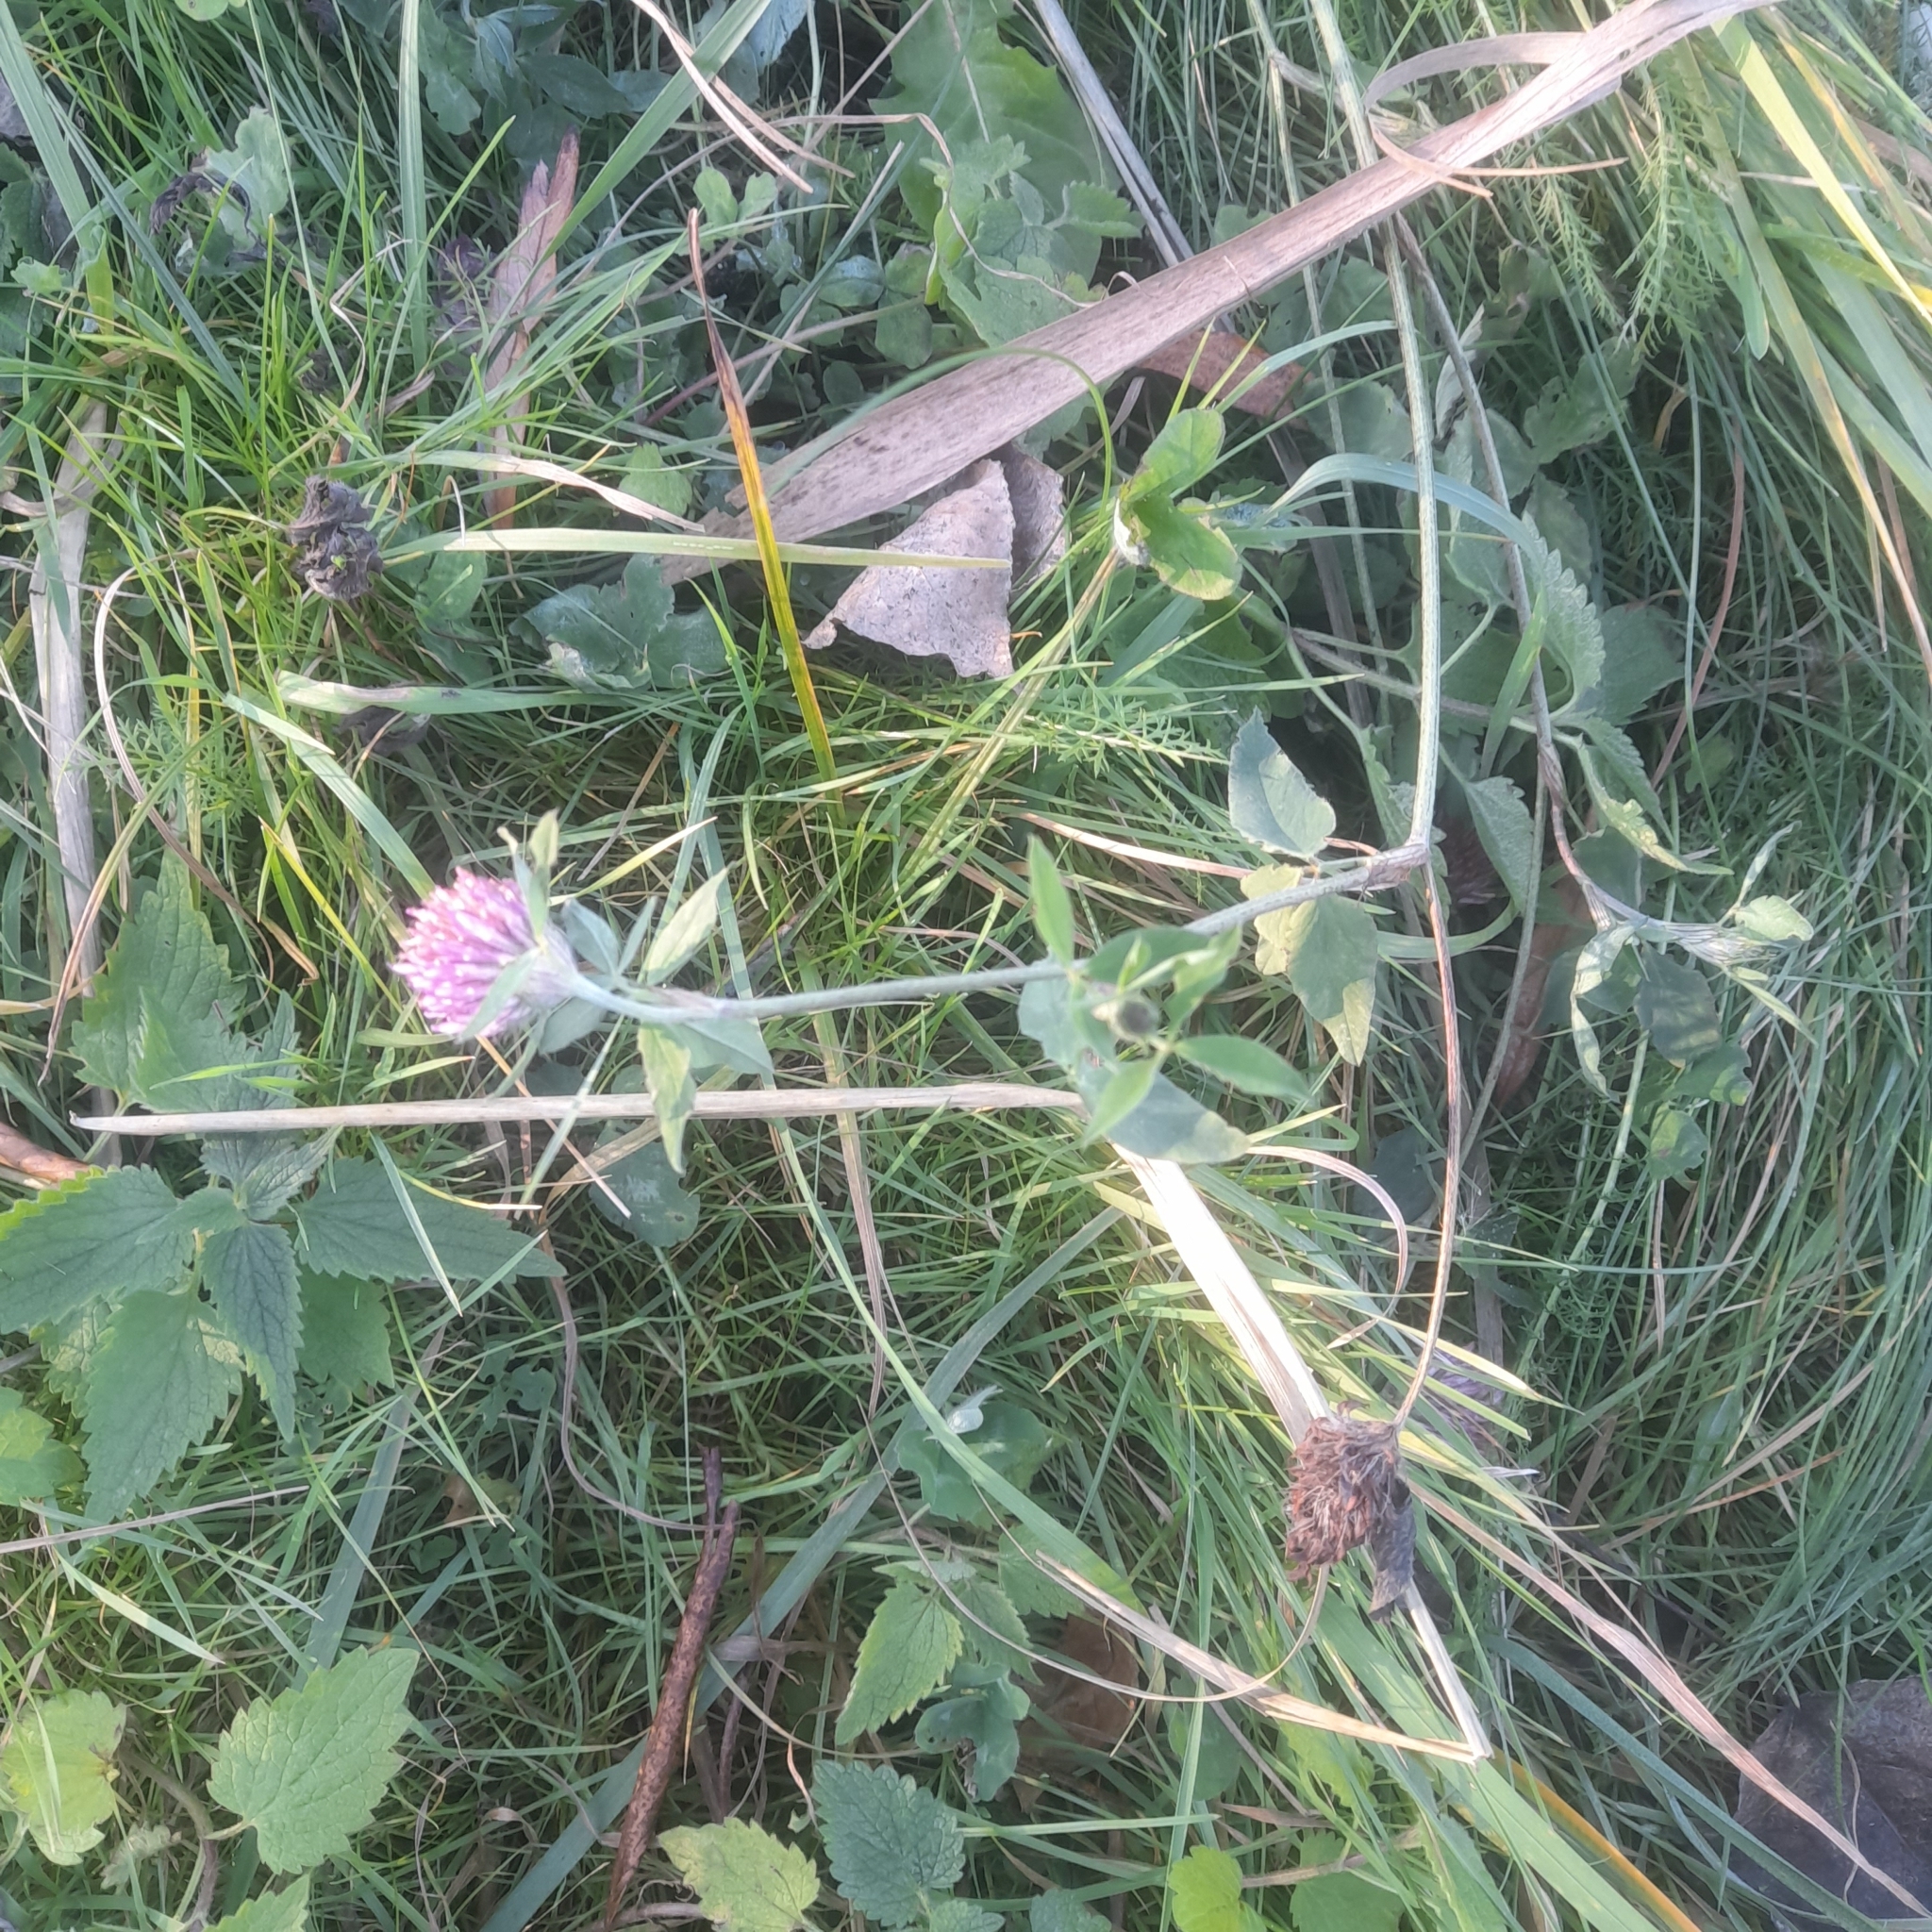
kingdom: Plantae
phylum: Tracheophyta
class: Magnoliopsida
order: Fabales
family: Fabaceae
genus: Trifolium
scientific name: Trifolium pratense
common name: Red clover
